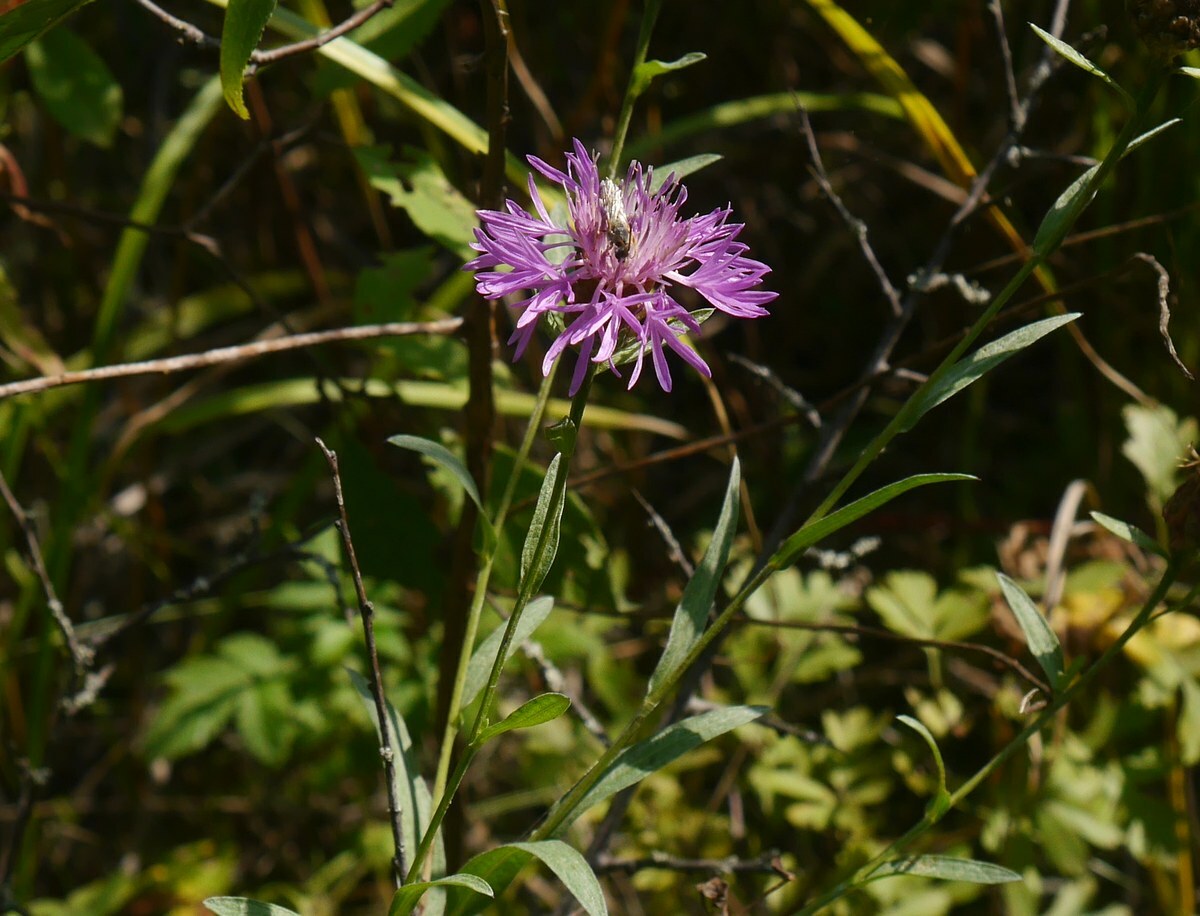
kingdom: Plantae
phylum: Tracheophyta
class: Magnoliopsida
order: Asterales
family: Asteraceae
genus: Centaurea
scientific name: Centaurea jacea
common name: Brown knapweed
